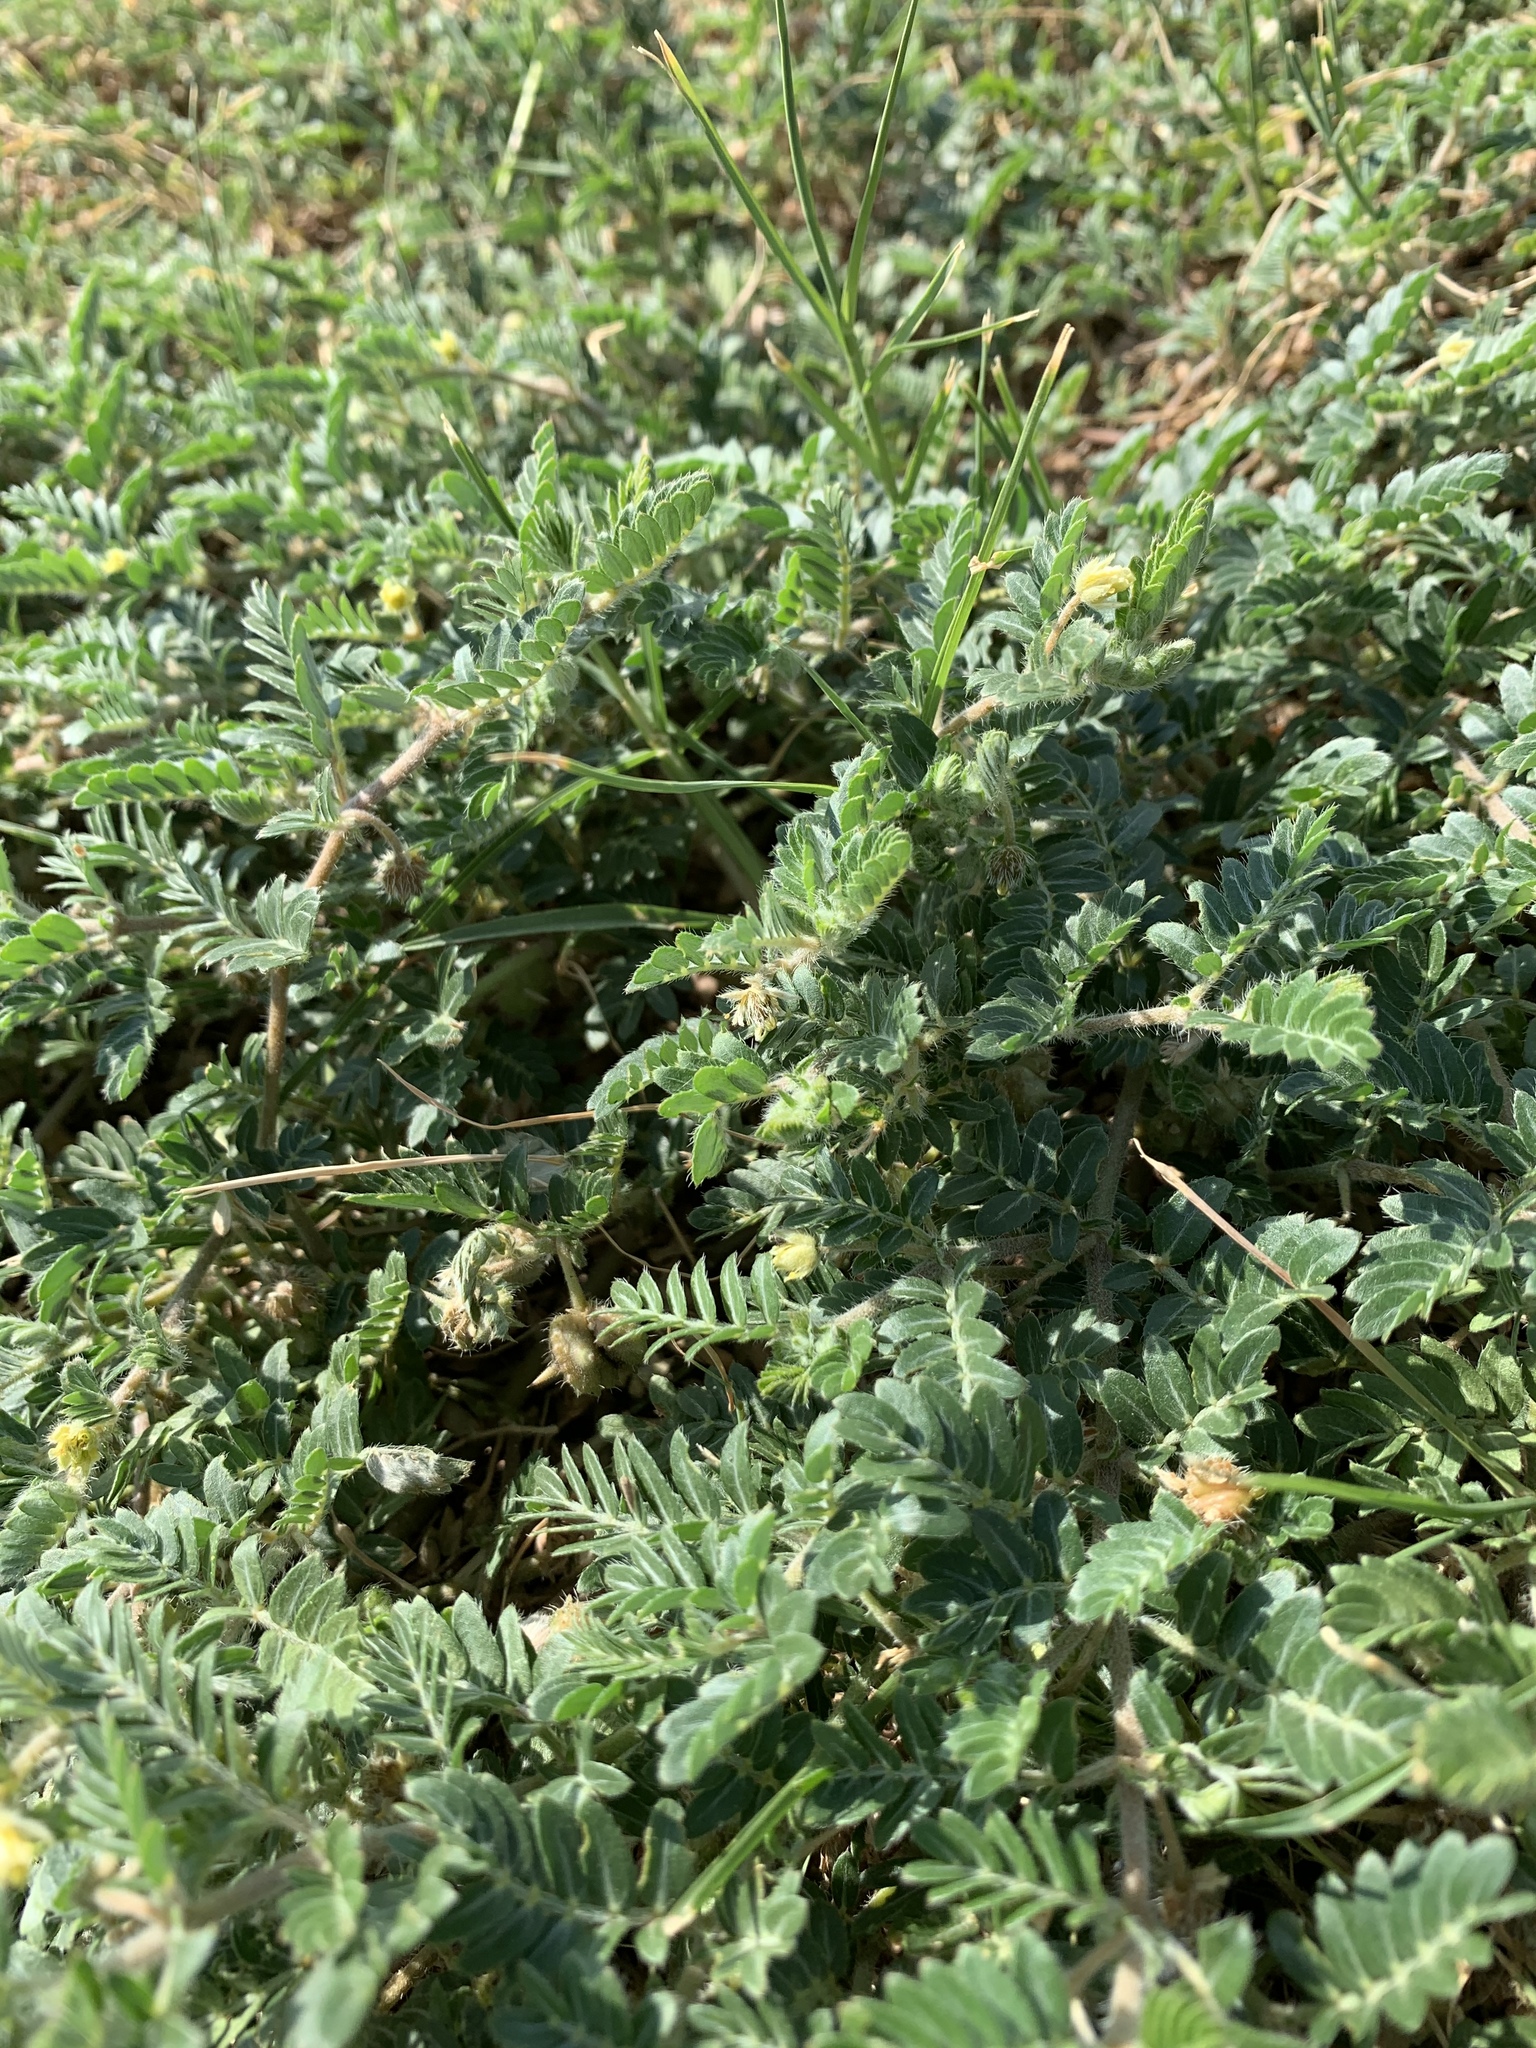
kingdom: Plantae
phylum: Tracheophyta
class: Magnoliopsida
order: Zygophyllales
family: Zygophyllaceae
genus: Tribulus
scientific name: Tribulus terrestris
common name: Puncturevine
